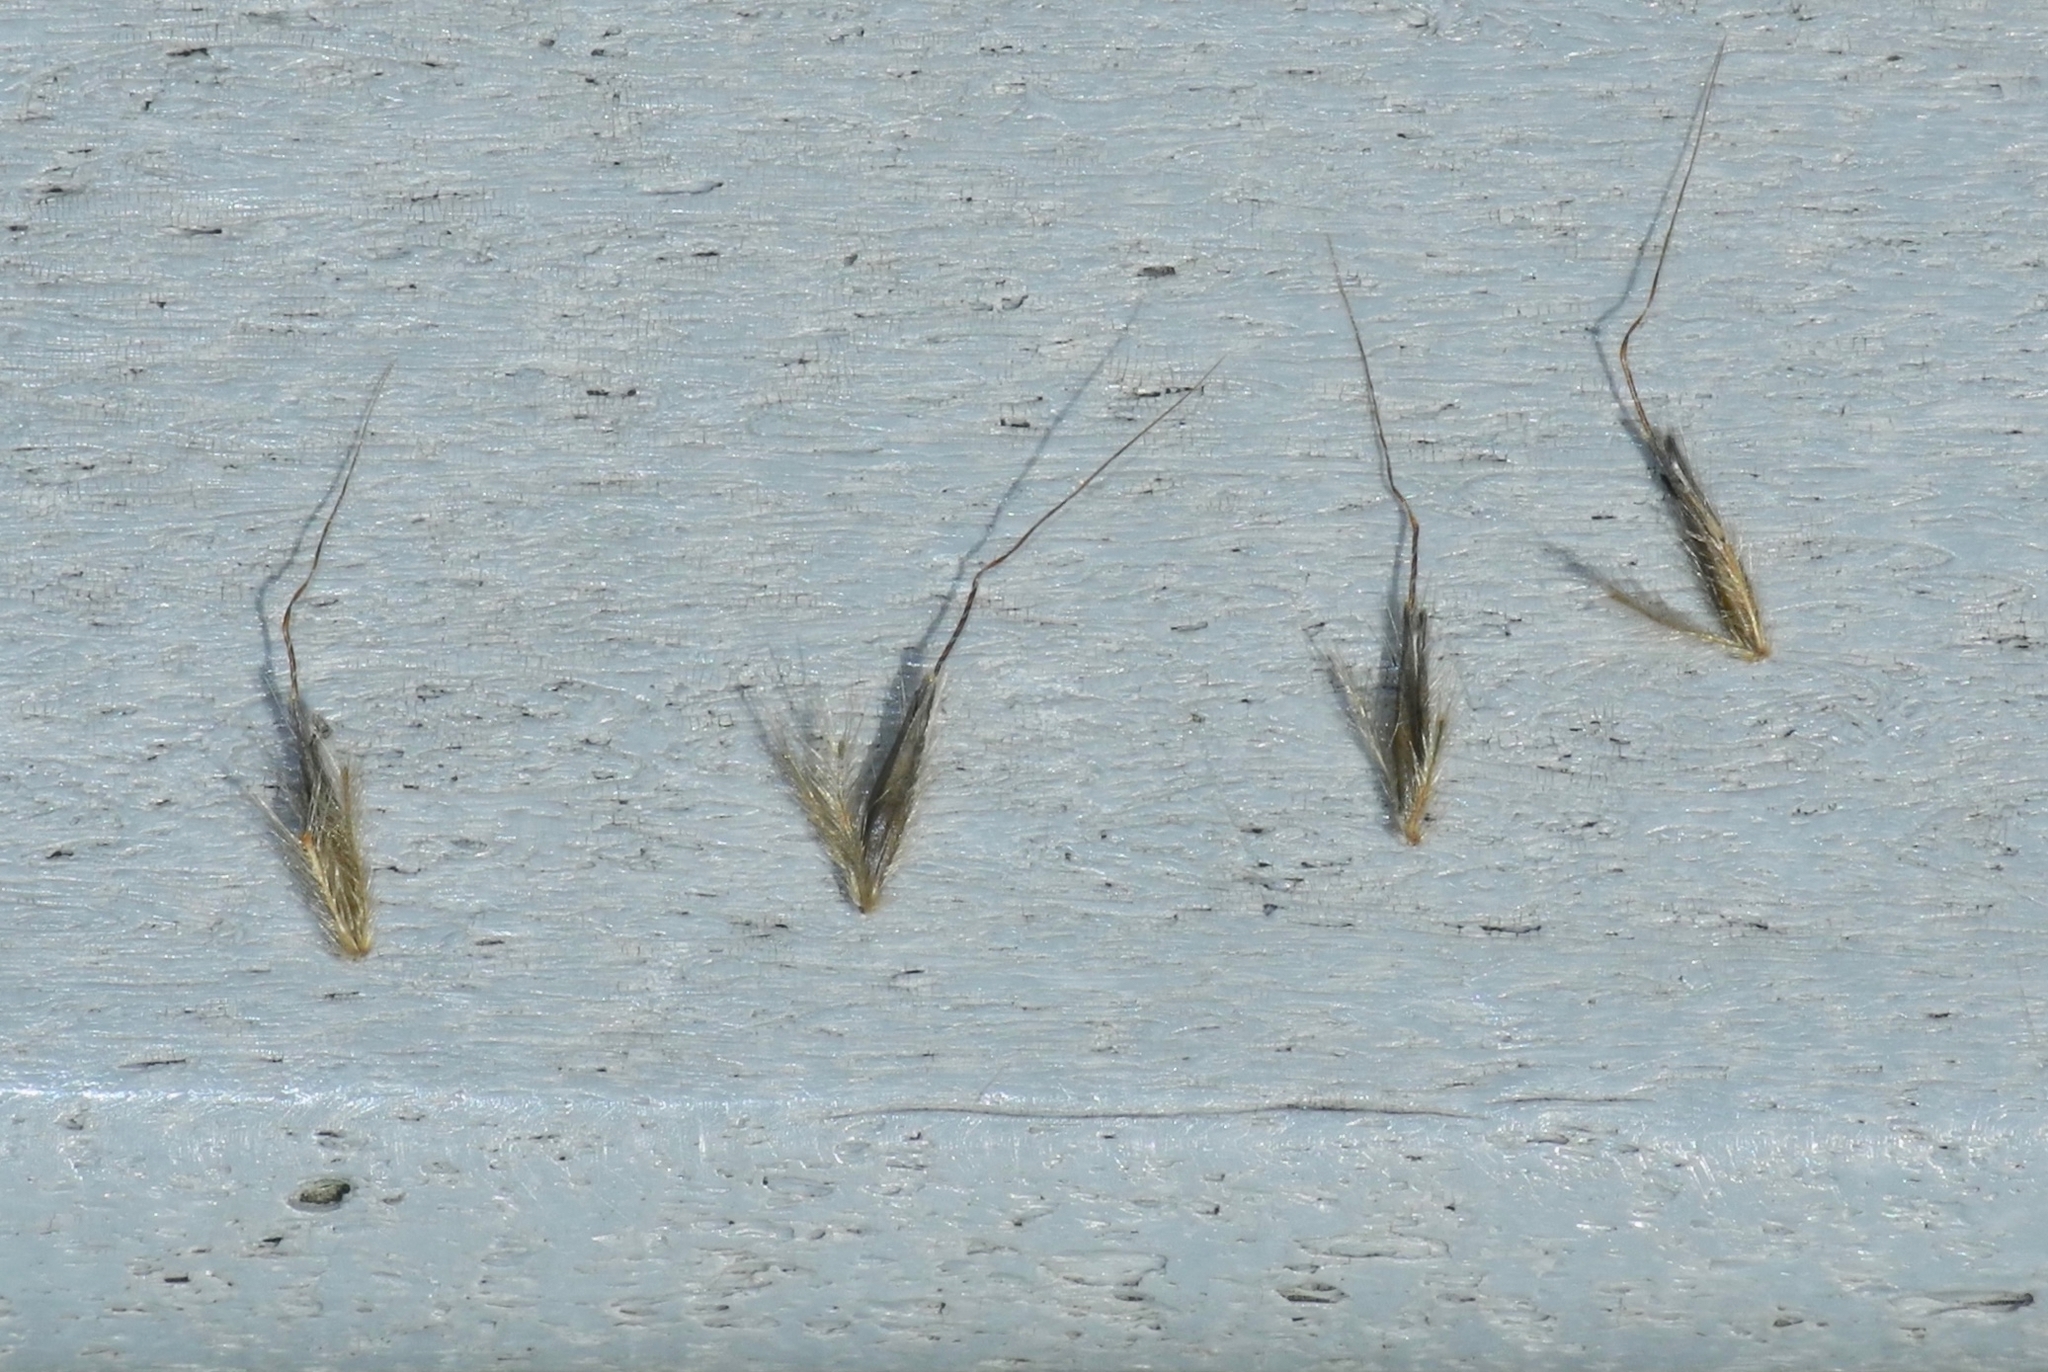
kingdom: Plantae
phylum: Tracheophyta
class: Liliopsida
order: Poales
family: Poaceae
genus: Sorghastrum
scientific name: Sorghastrum nutans
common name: Indian grass
